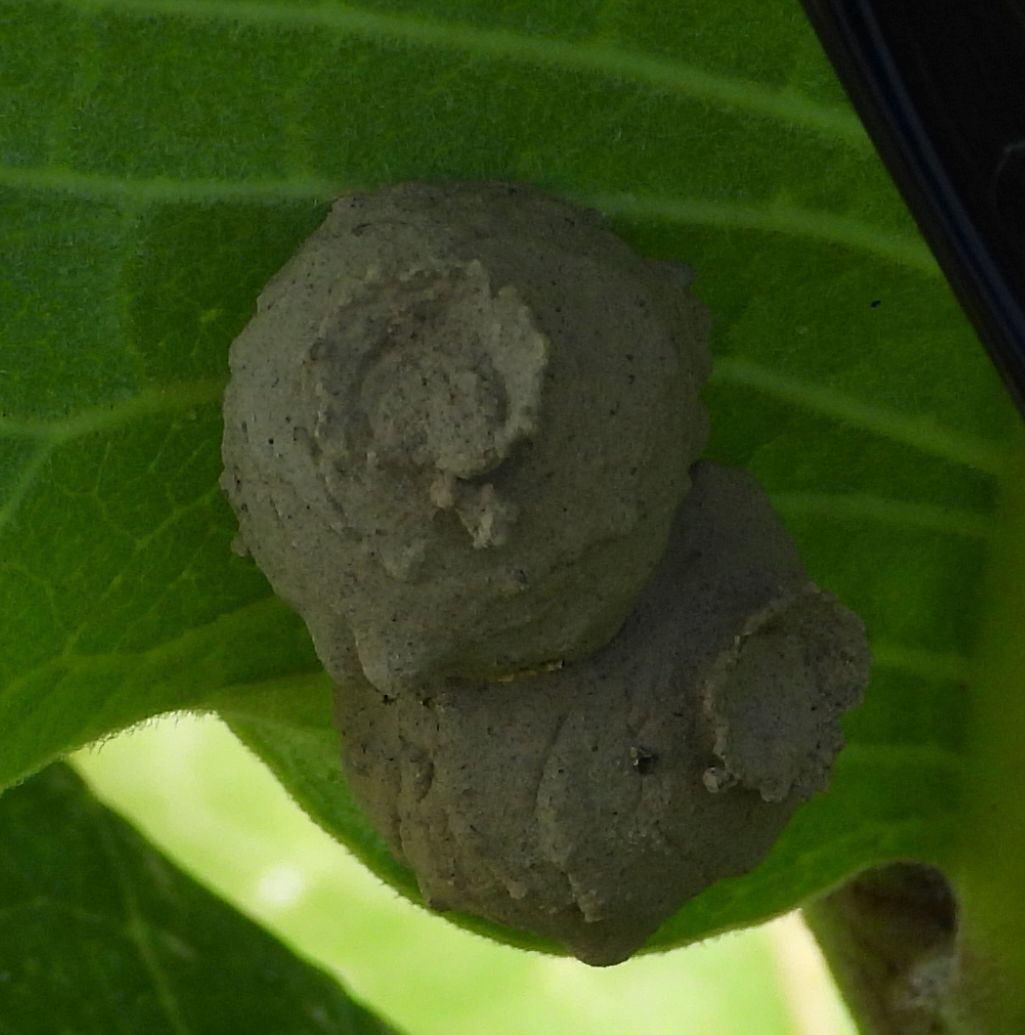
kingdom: Animalia
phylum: Arthropoda
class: Insecta
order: Hymenoptera
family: Vespidae
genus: Eumenes
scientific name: Eumenes
